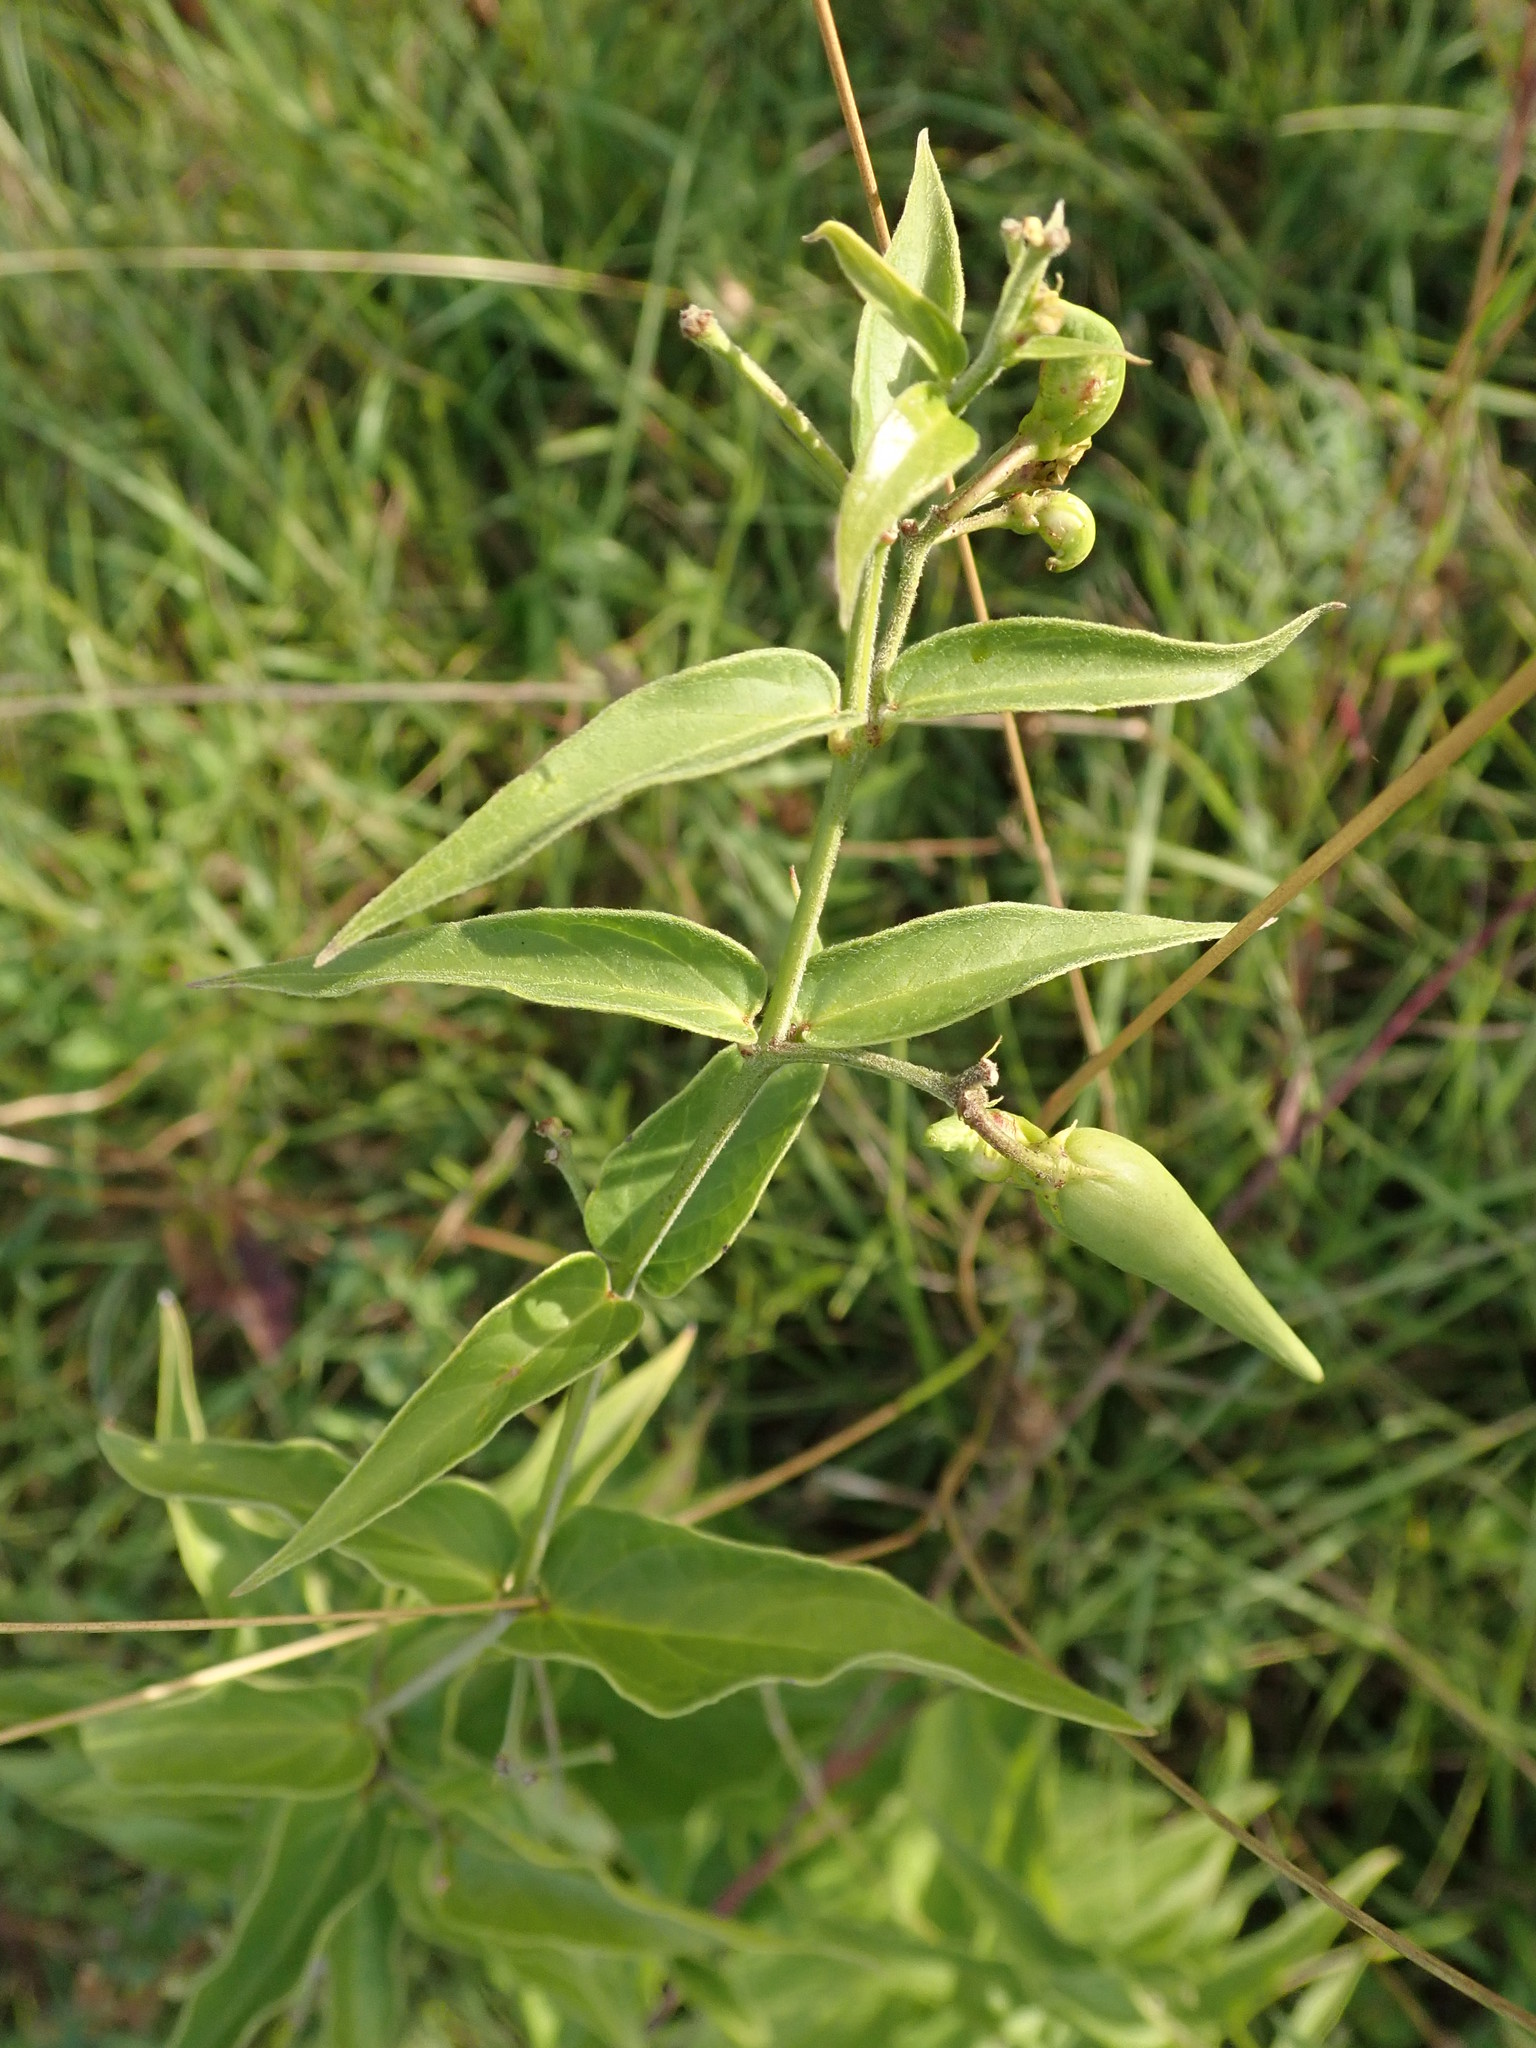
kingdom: Plantae
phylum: Tracheophyta
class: Magnoliopsida
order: Gentianales
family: Apocynaceae
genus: Vincetoxicum
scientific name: Vincetoxicum hirundinaria
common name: White swallowwort
